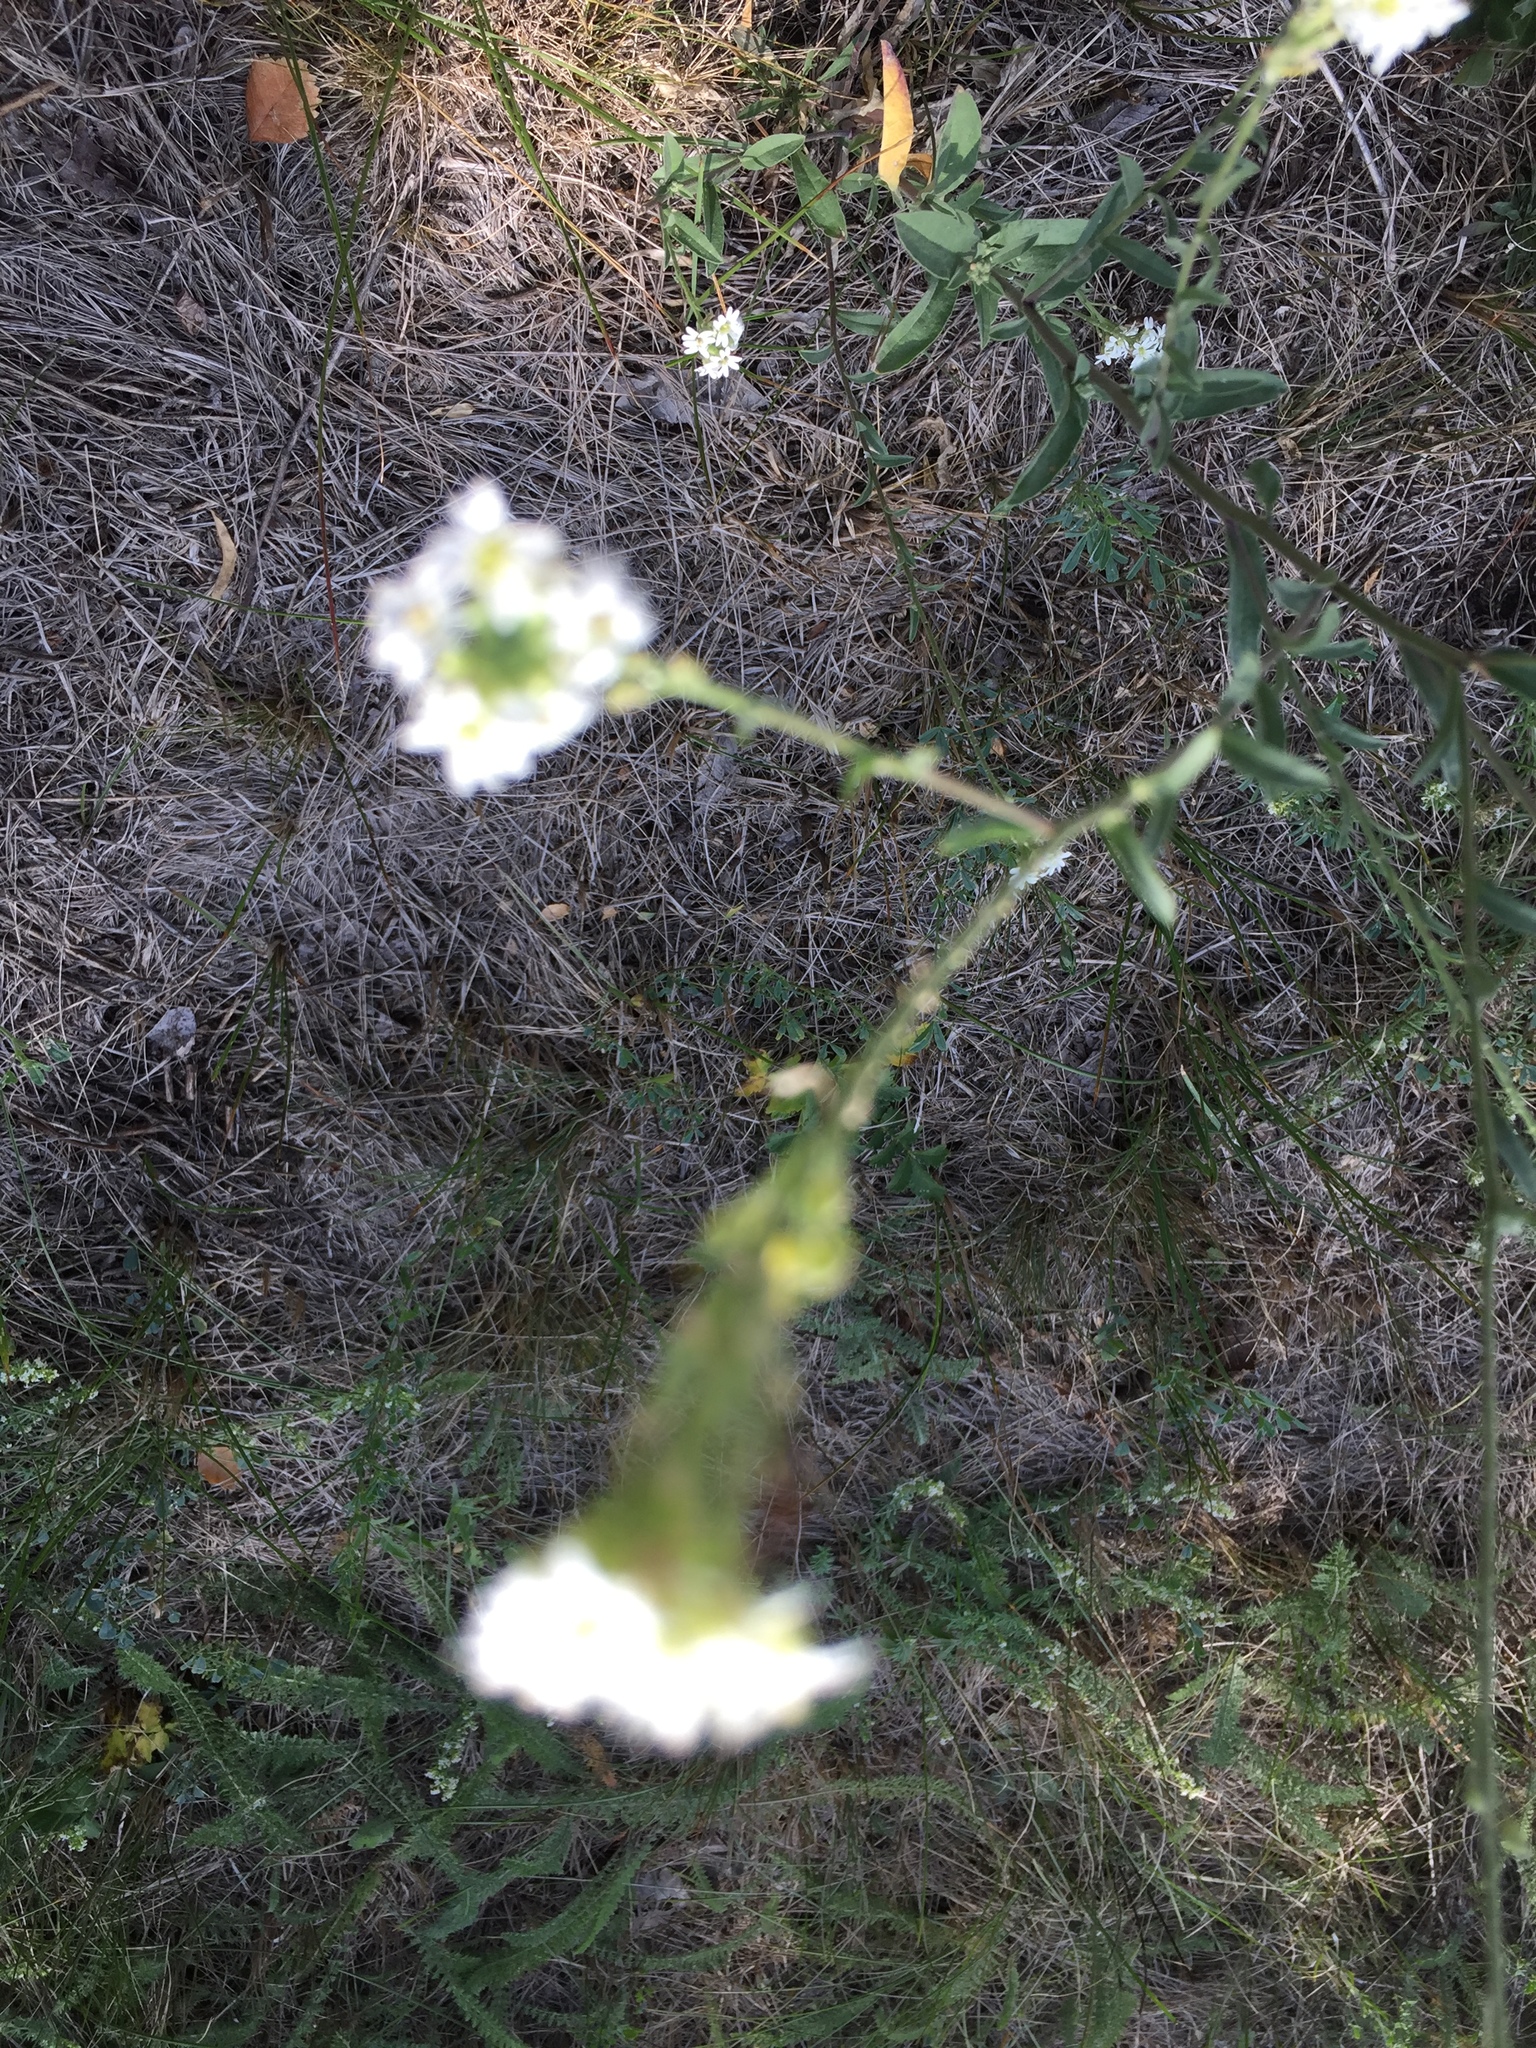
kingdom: Plantae
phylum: Tracheophyta
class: Magnoliopsida
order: Brassicales
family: Brassicaceae
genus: Berteroa
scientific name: Berteroa incana
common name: Hoary alison
